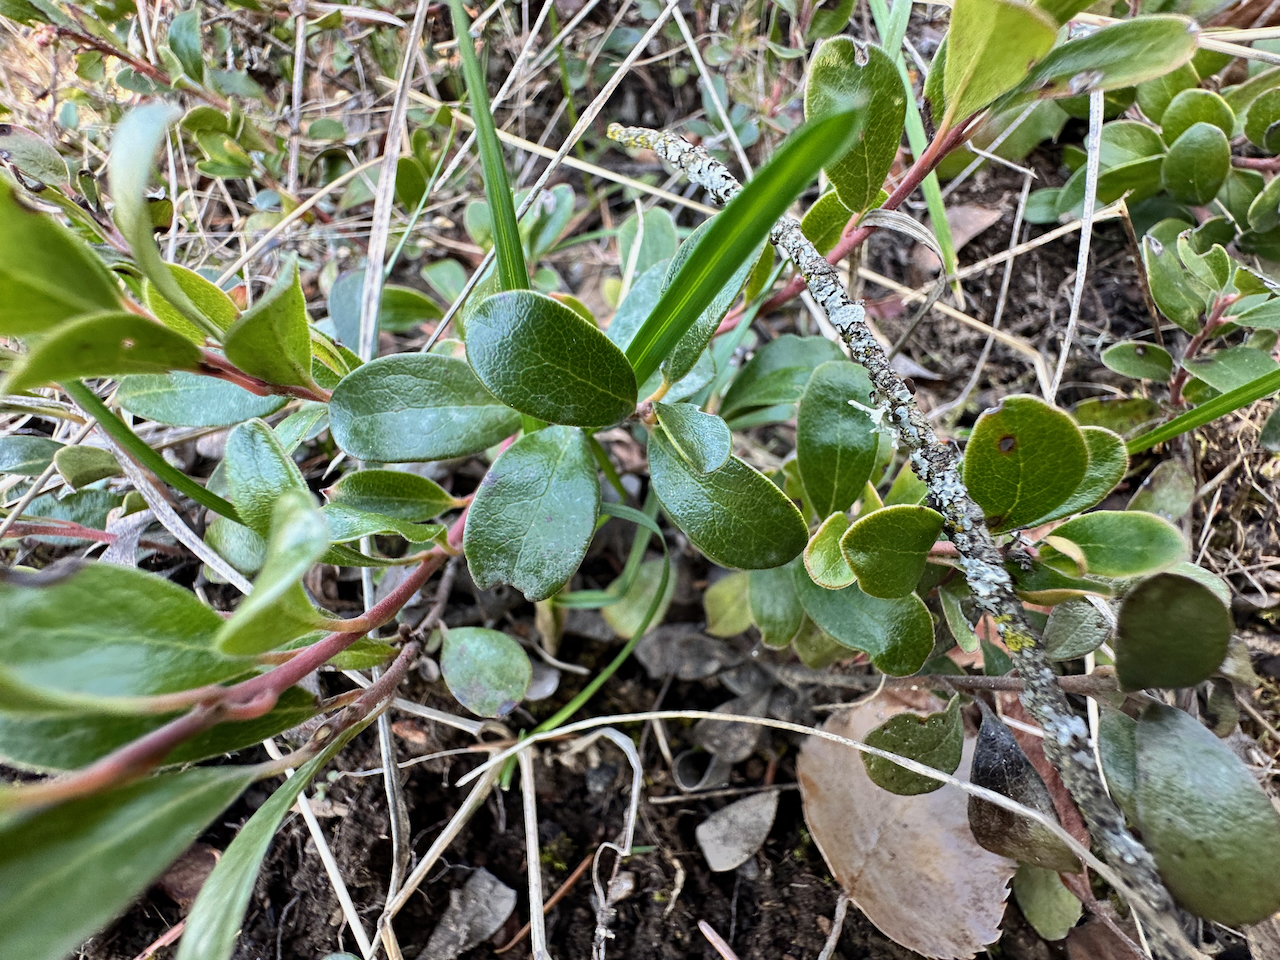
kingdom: Plantae
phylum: Tracheophyta
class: Magnoliopsida
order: Ericales
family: Ericaceae
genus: Arctostaphylos
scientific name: Arctostaphylos uva-ursi
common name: Bearberry
